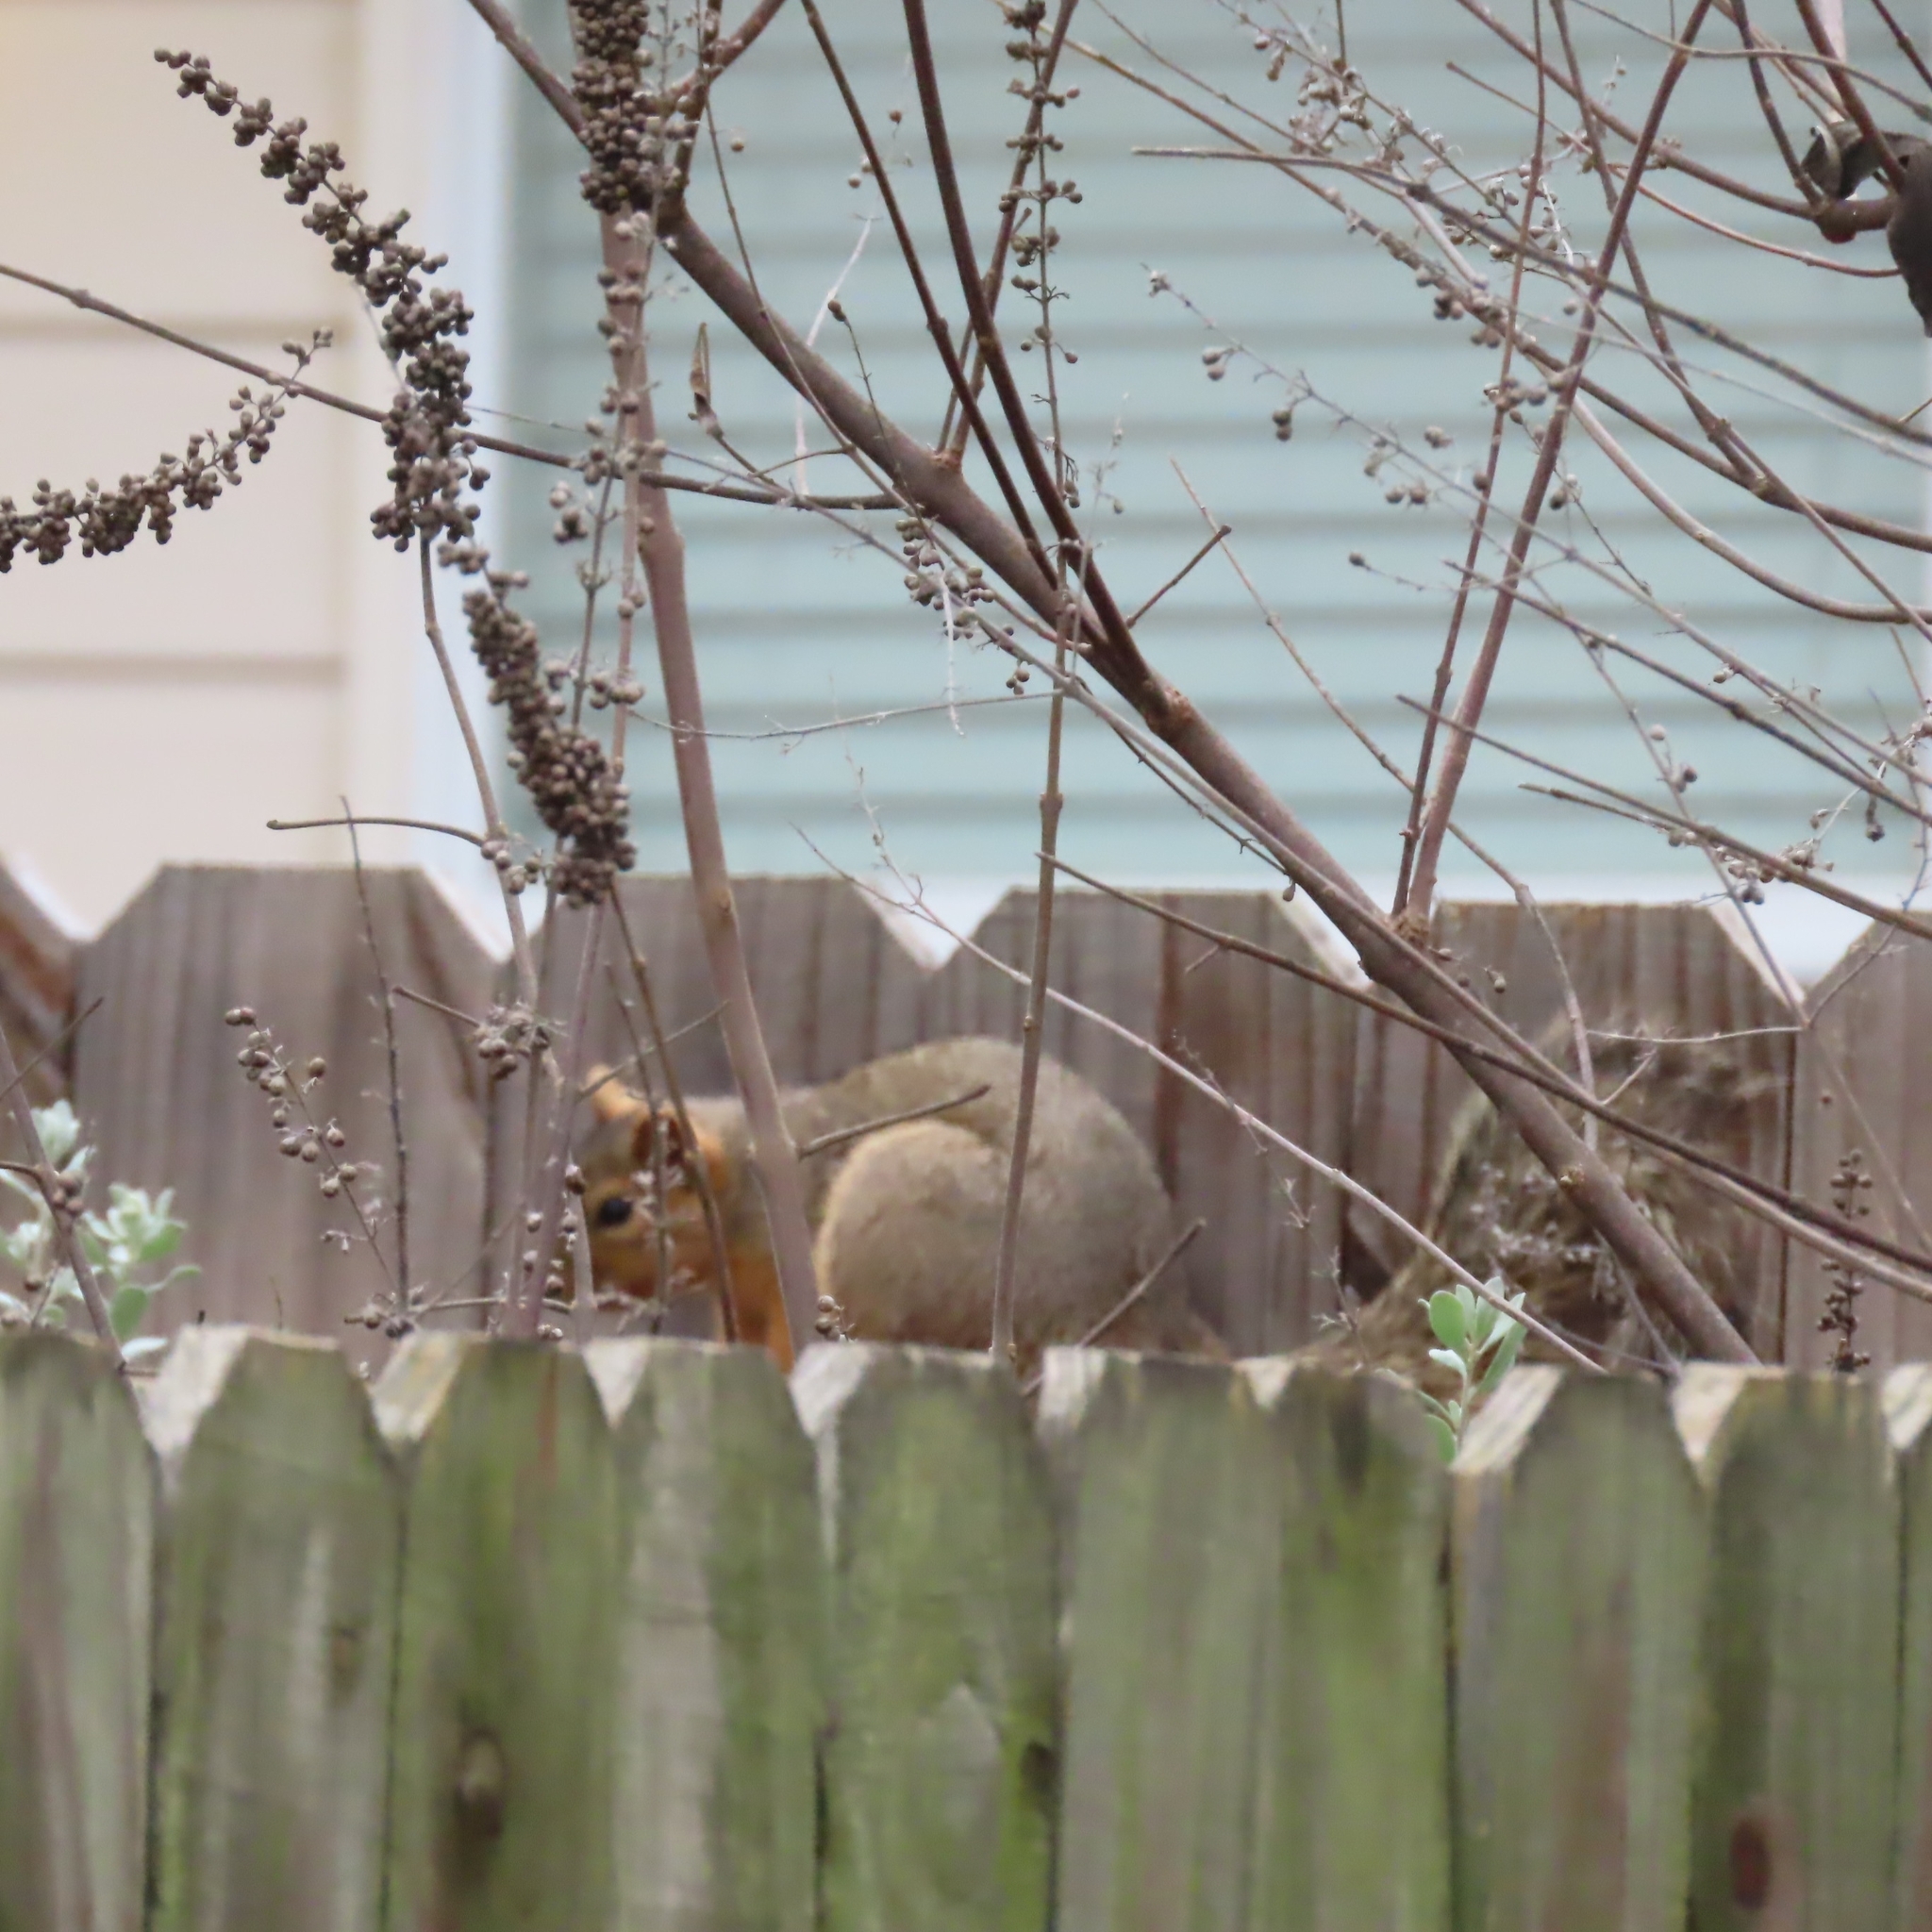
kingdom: Animalia
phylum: Chordata
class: Mammalia
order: Rodentia
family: Sciuridae
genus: Sciurus
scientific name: Sciurus niger
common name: Fox squirrel
